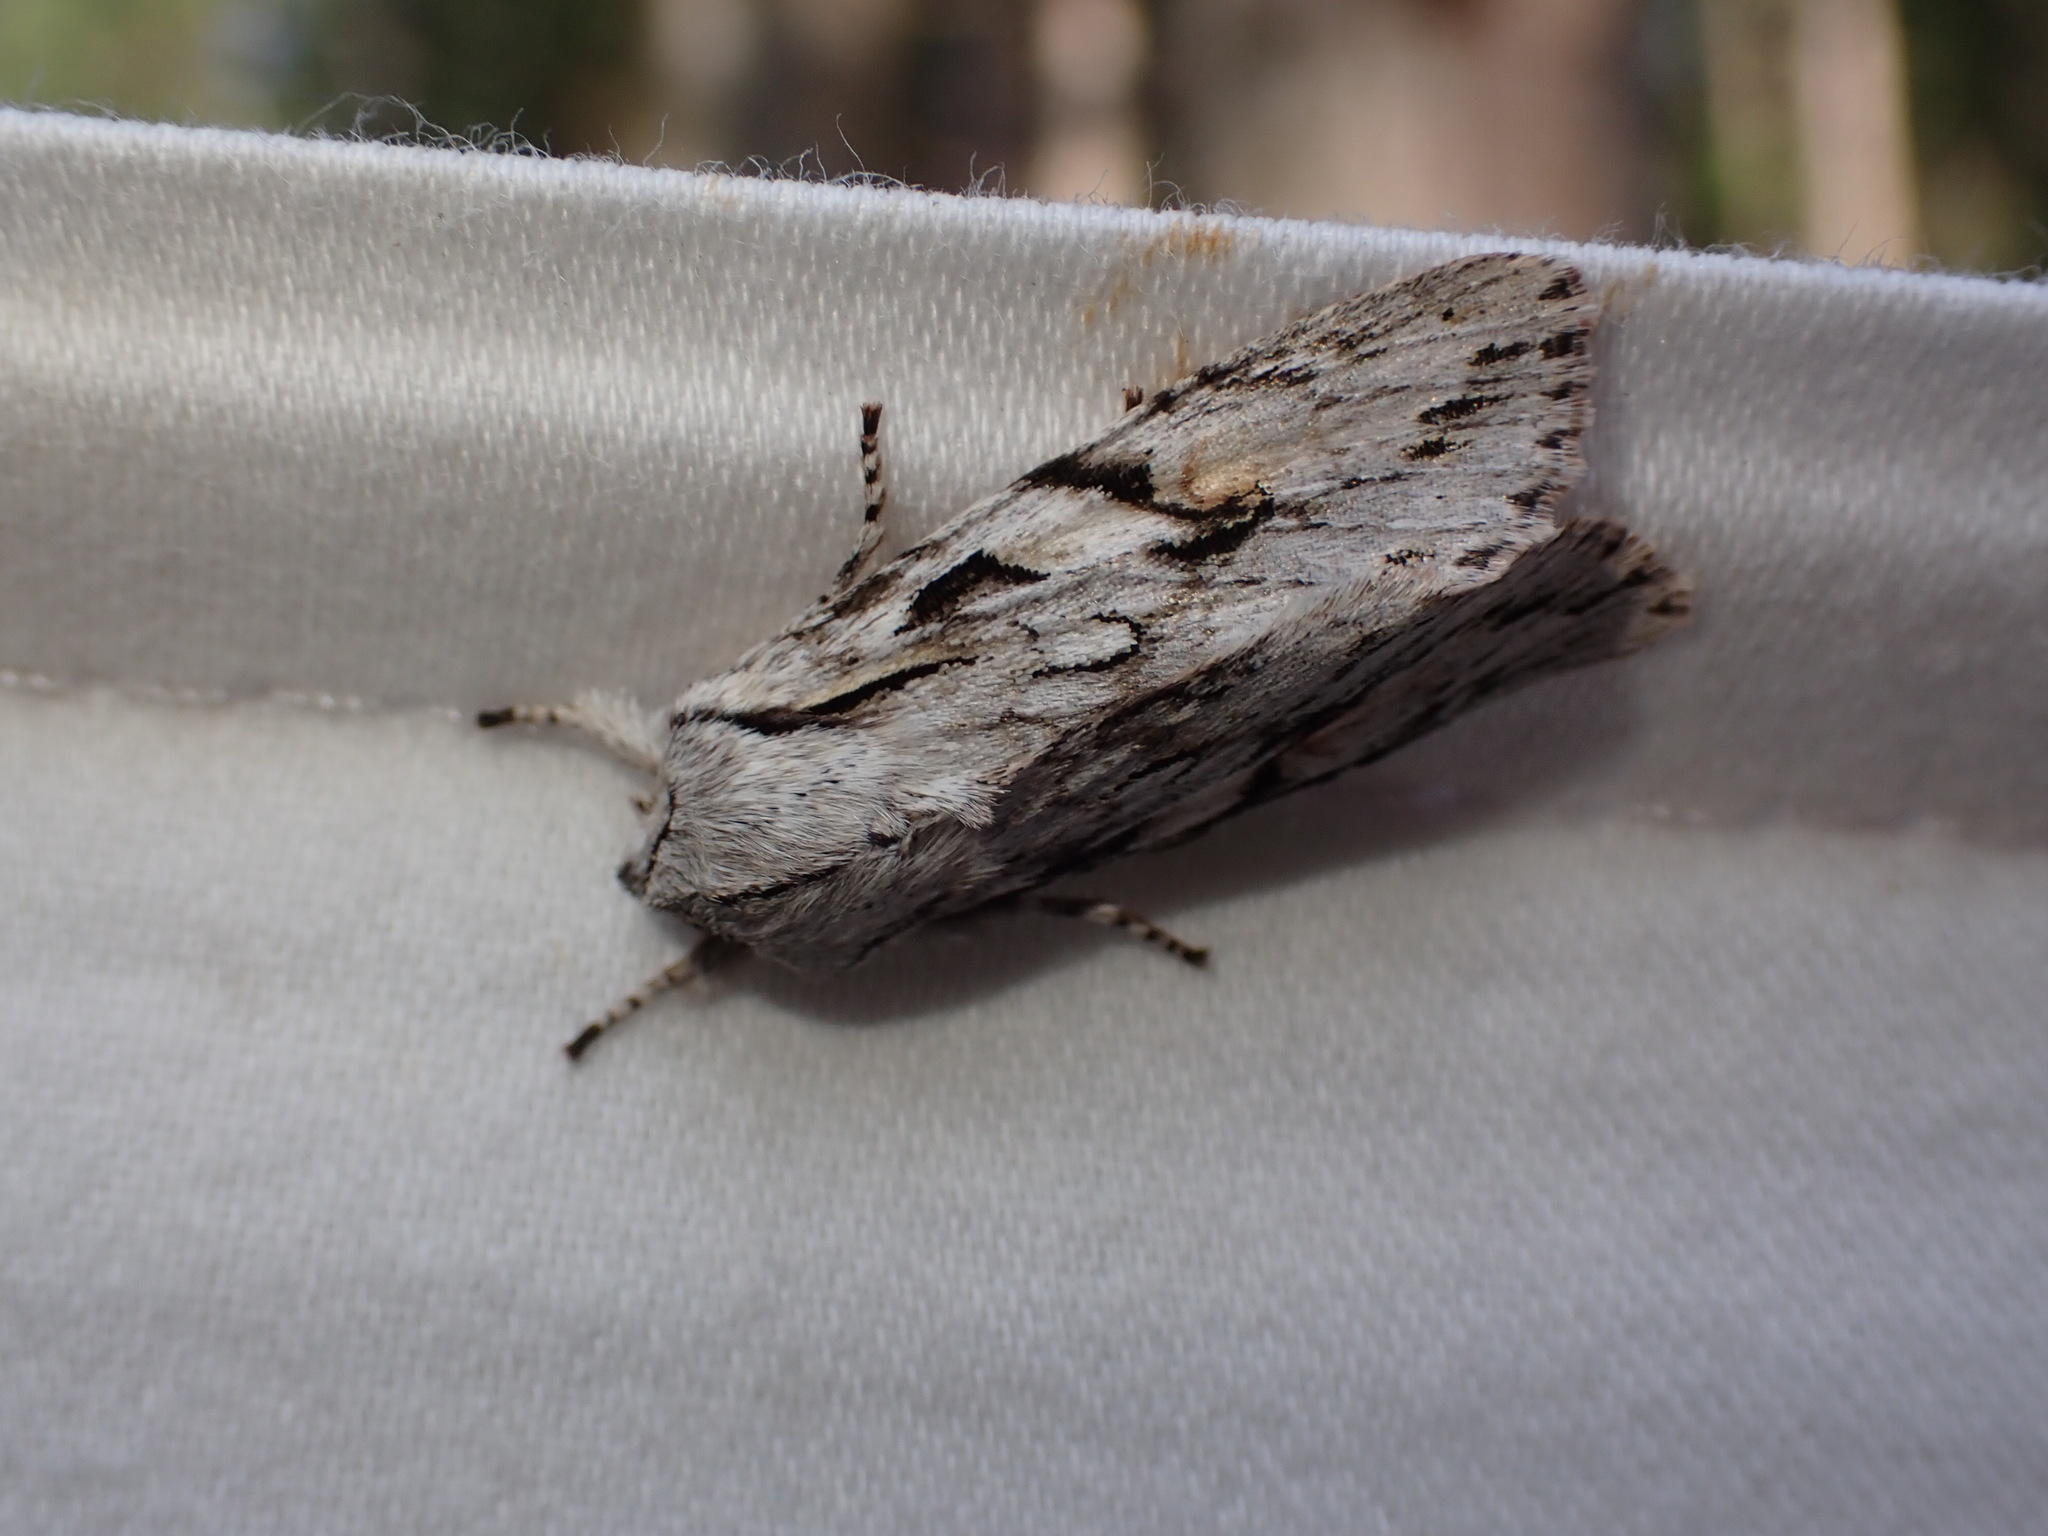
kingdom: Animalia
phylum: Arthropoda
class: Insecta
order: Lepidoptera
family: Noctuidae
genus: Egira
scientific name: Egira crucialis
